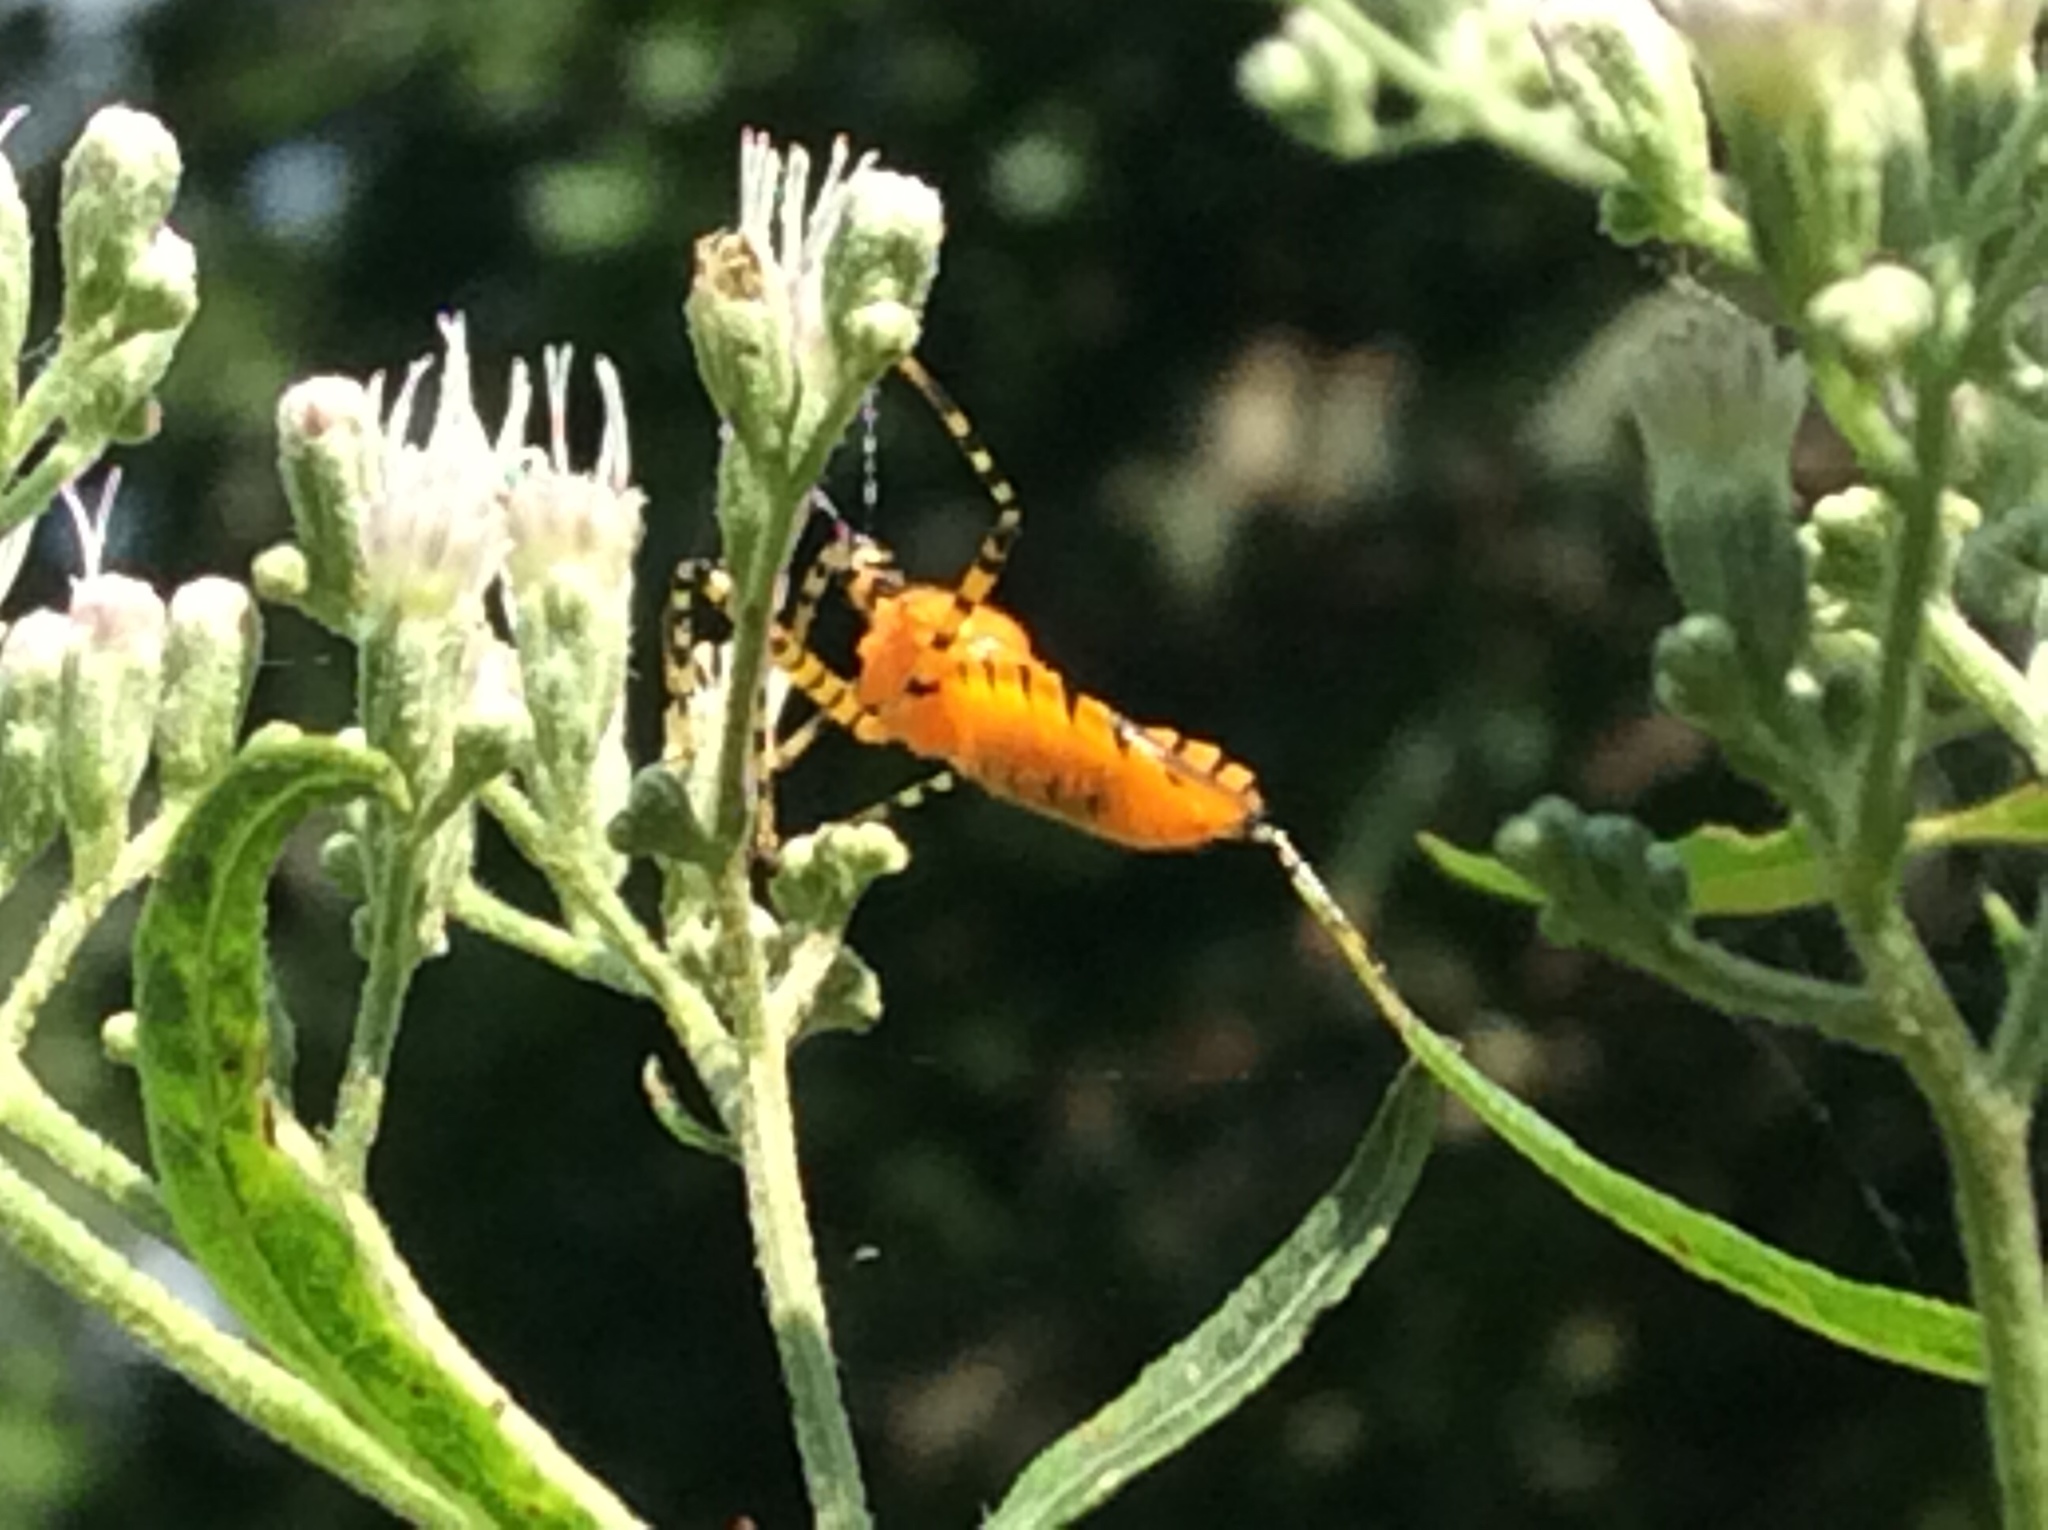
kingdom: Animalia
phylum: Arthropoda
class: Insecta
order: Hemiptera
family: Reduviidae
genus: Pselliopus
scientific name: Pselliopus barberi
